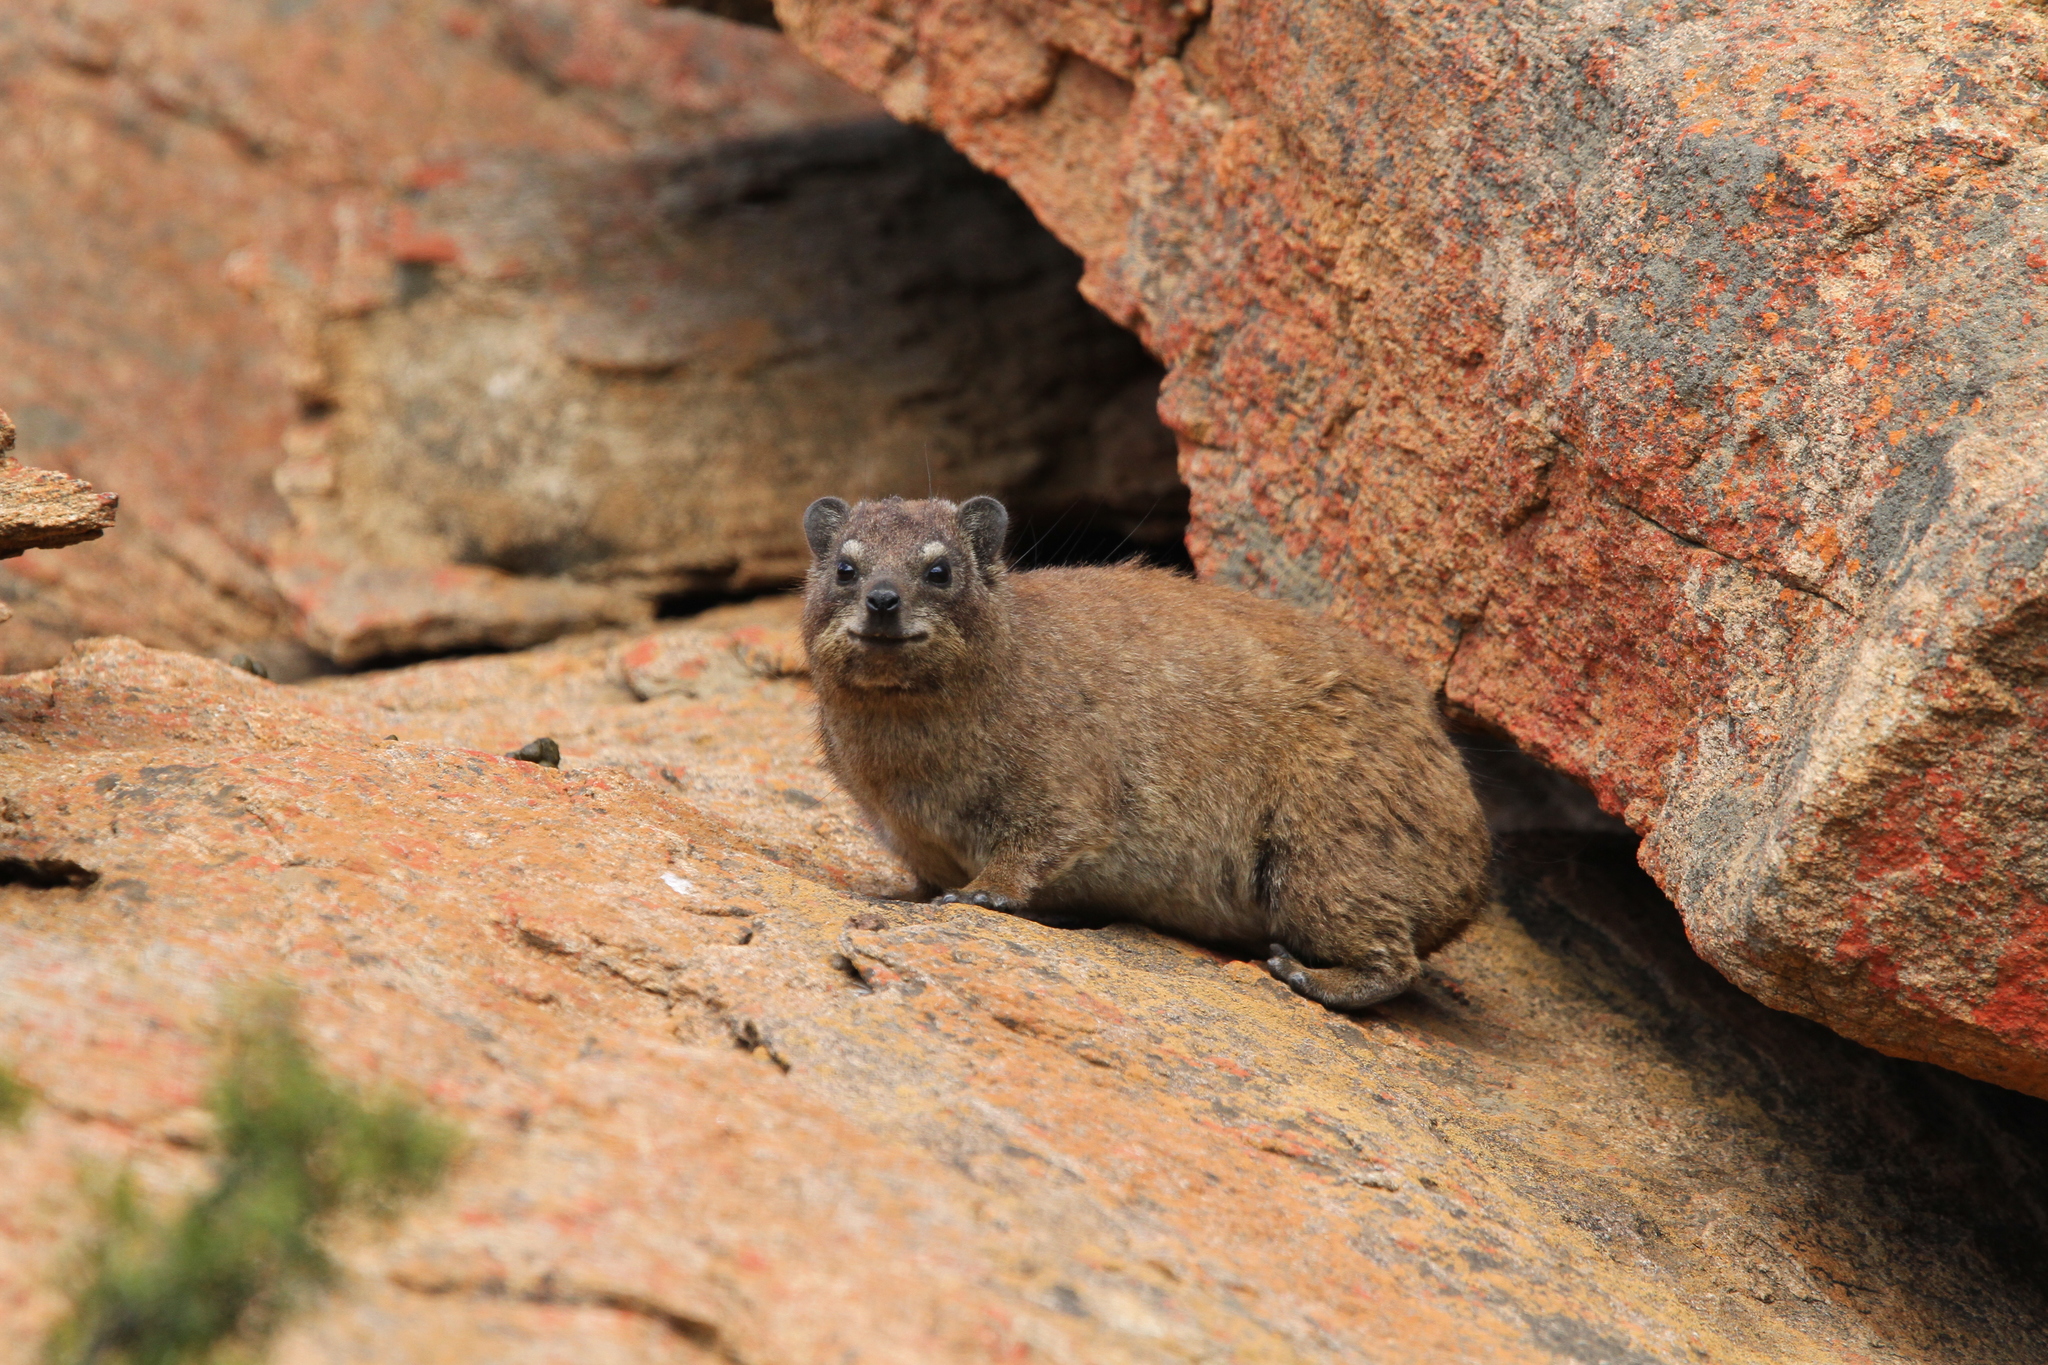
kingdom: Animalia
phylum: Chordata
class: Mammalia
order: Hyracoidea
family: Procaviidae
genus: Procavia
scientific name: Procavia capensis
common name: Rock hyrax
